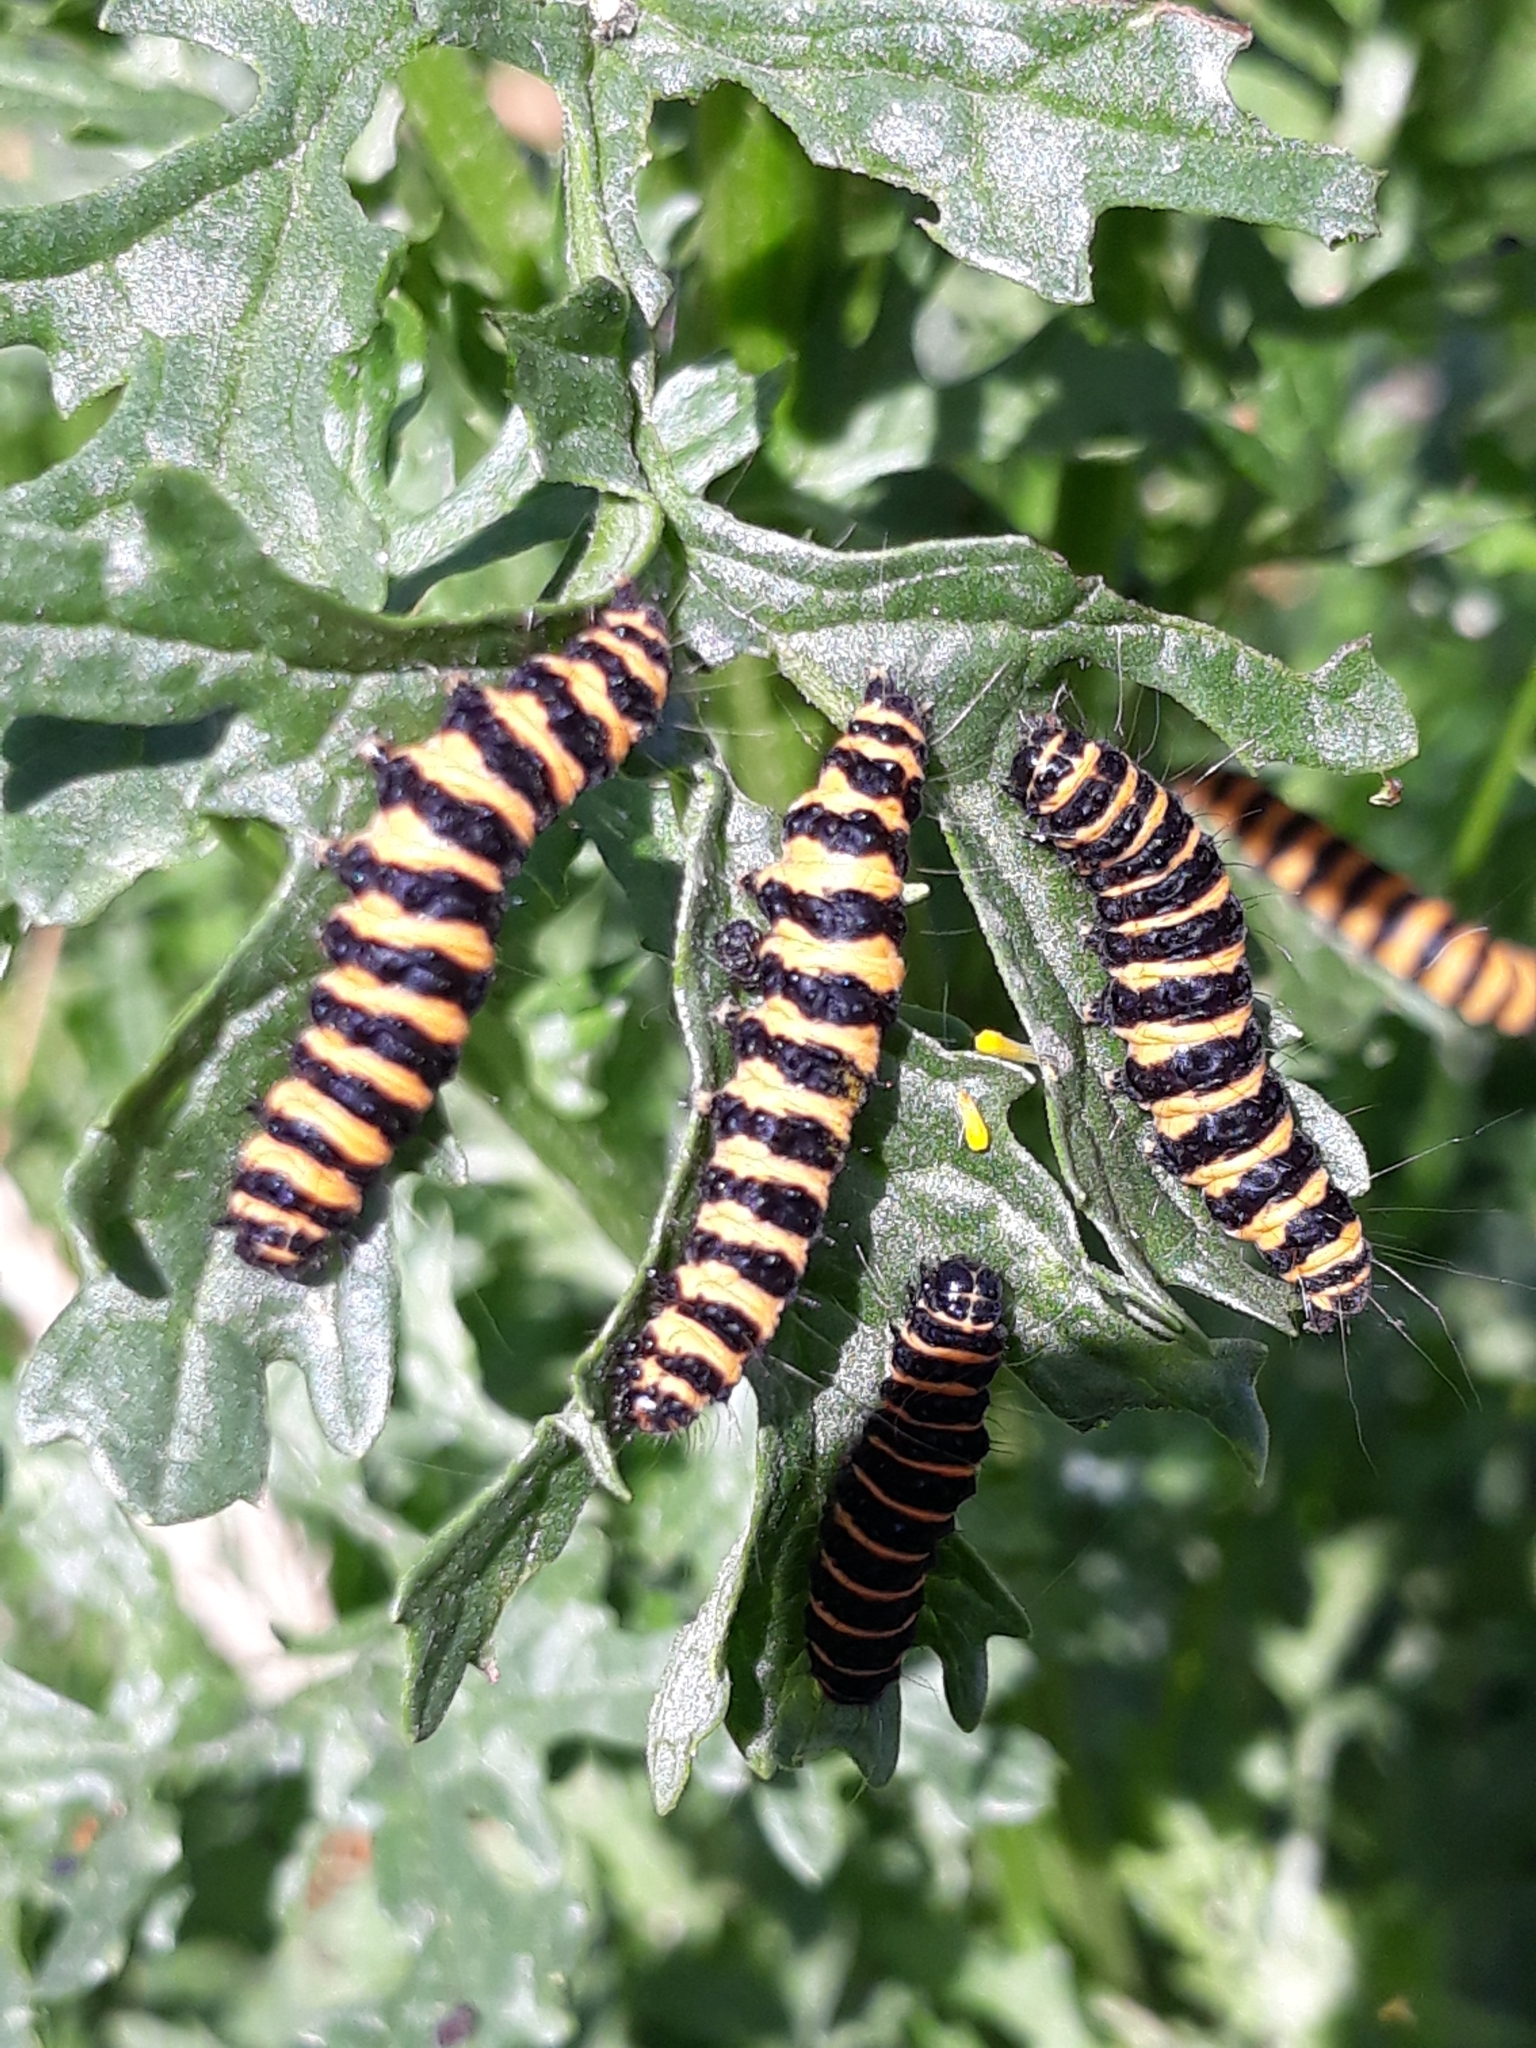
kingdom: Animalia
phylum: Arthropoda
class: Insecta
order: Lepidoptera
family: Erebidae
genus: Tyria
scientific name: Tyria jacobaeae
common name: Cinnabar
